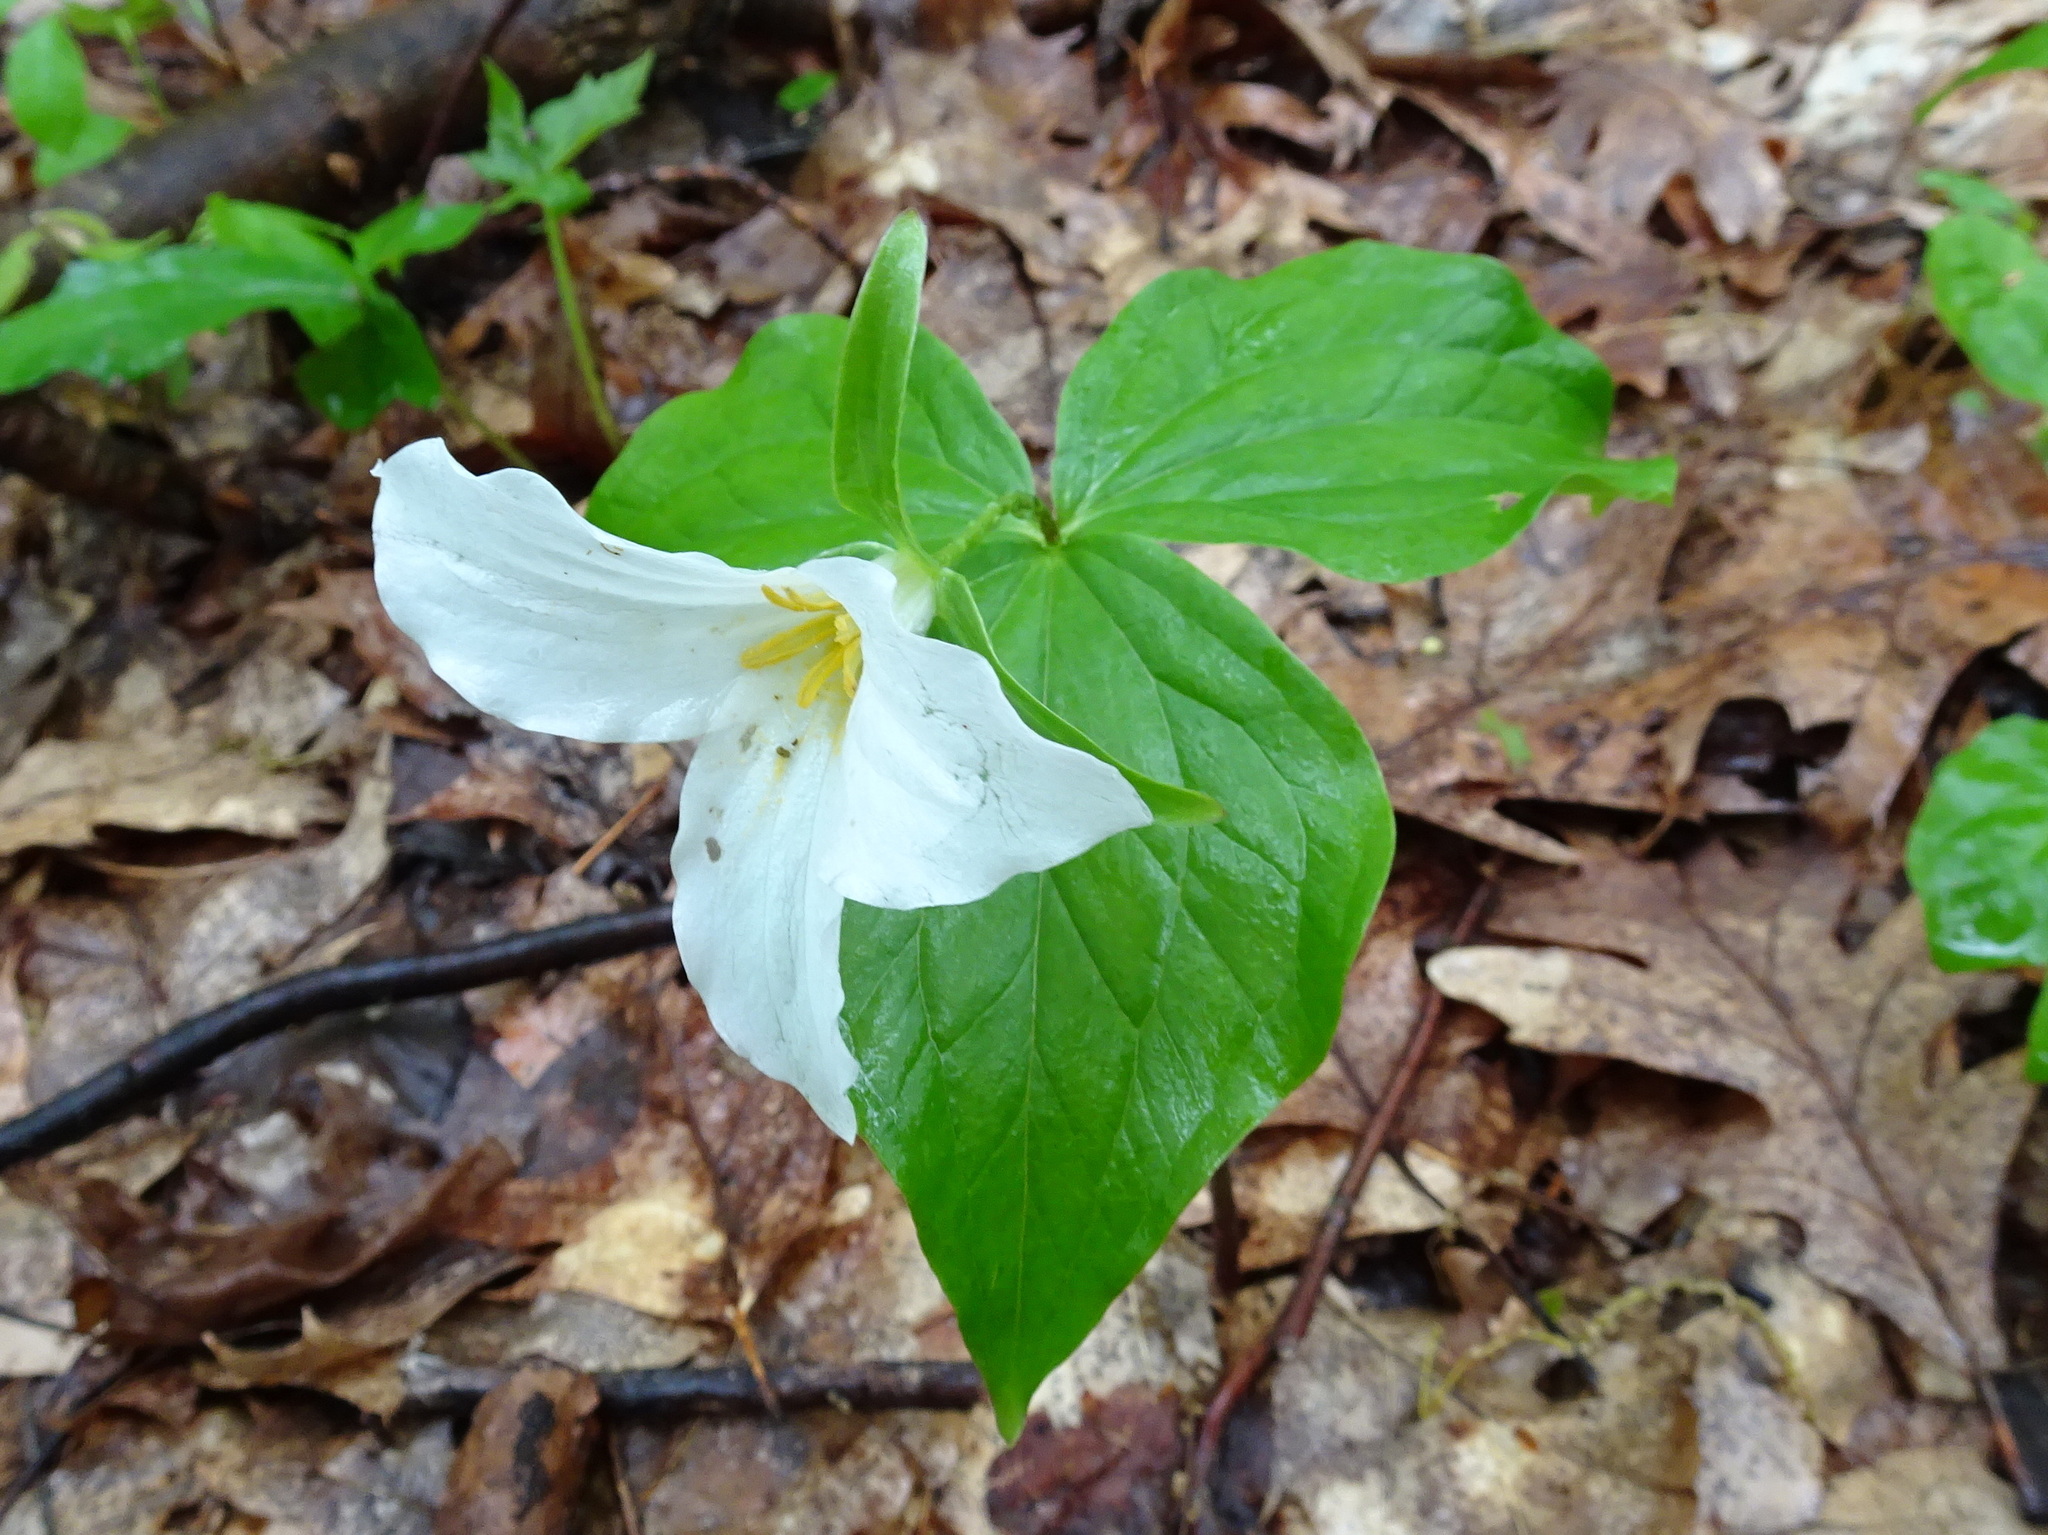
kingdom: Plantae
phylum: Tracheophyta
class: Liliopsida
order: Liliales
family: Melanthiaceae
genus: Trillium
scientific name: Trillium grandiflorum
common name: Great white trillium
